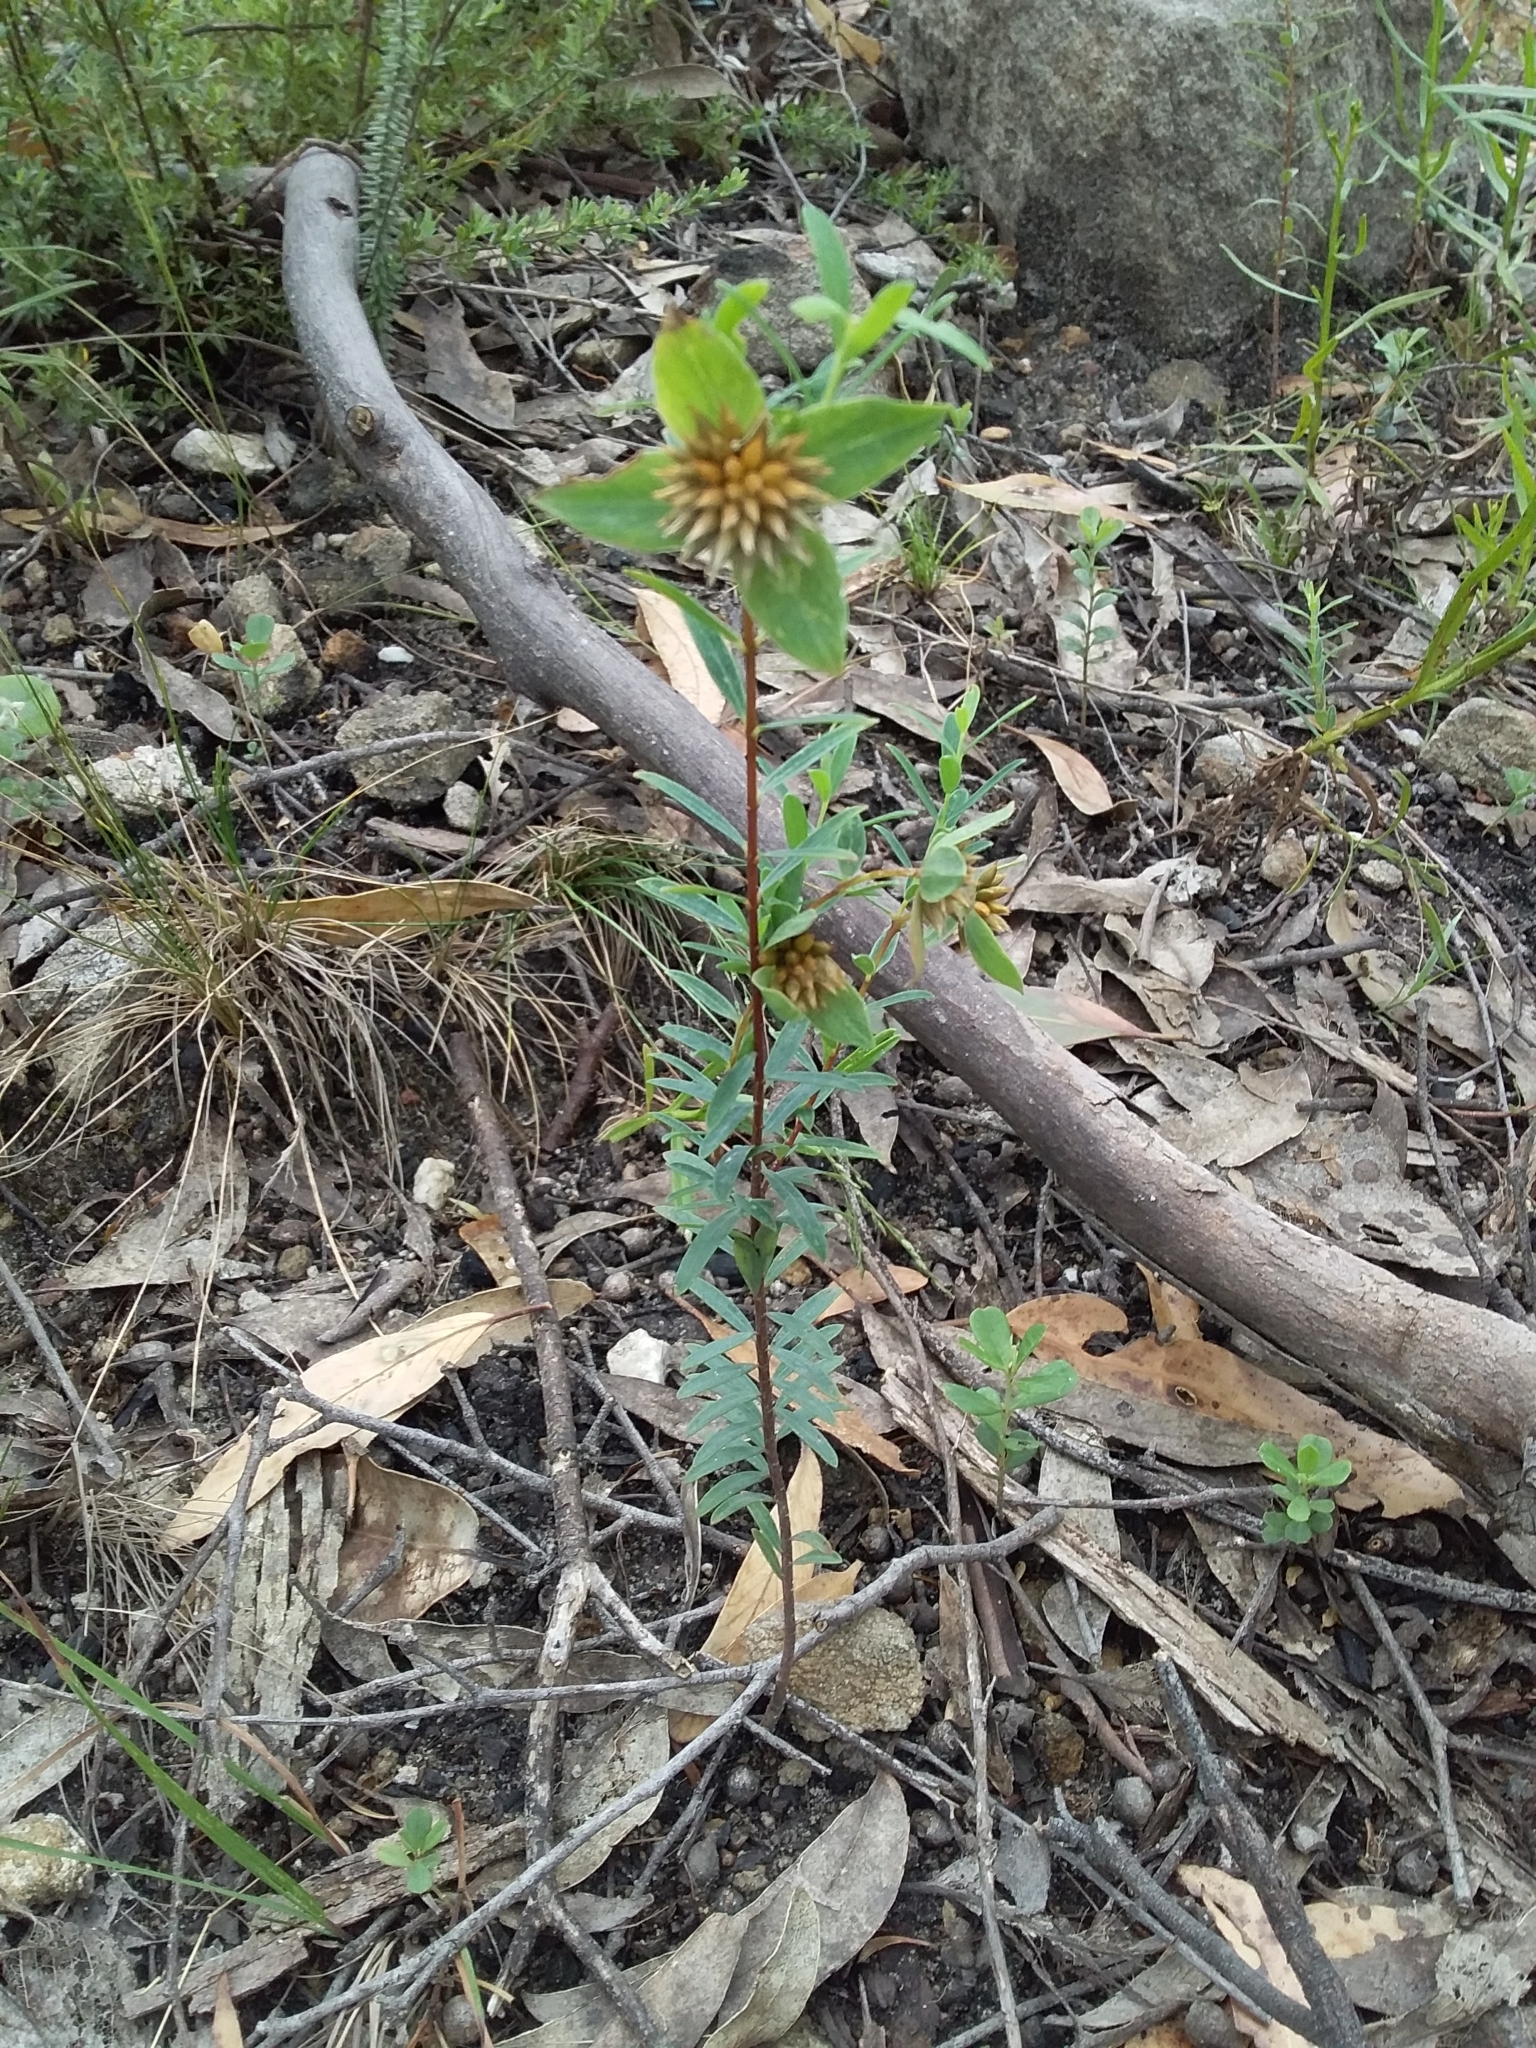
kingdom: Plantae
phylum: Tracheophyta
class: Magnoliopsida
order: Malvales
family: Thymelaeaceae
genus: Pimelea
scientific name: Pimelea linifolia
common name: Queen-of-the-bush
